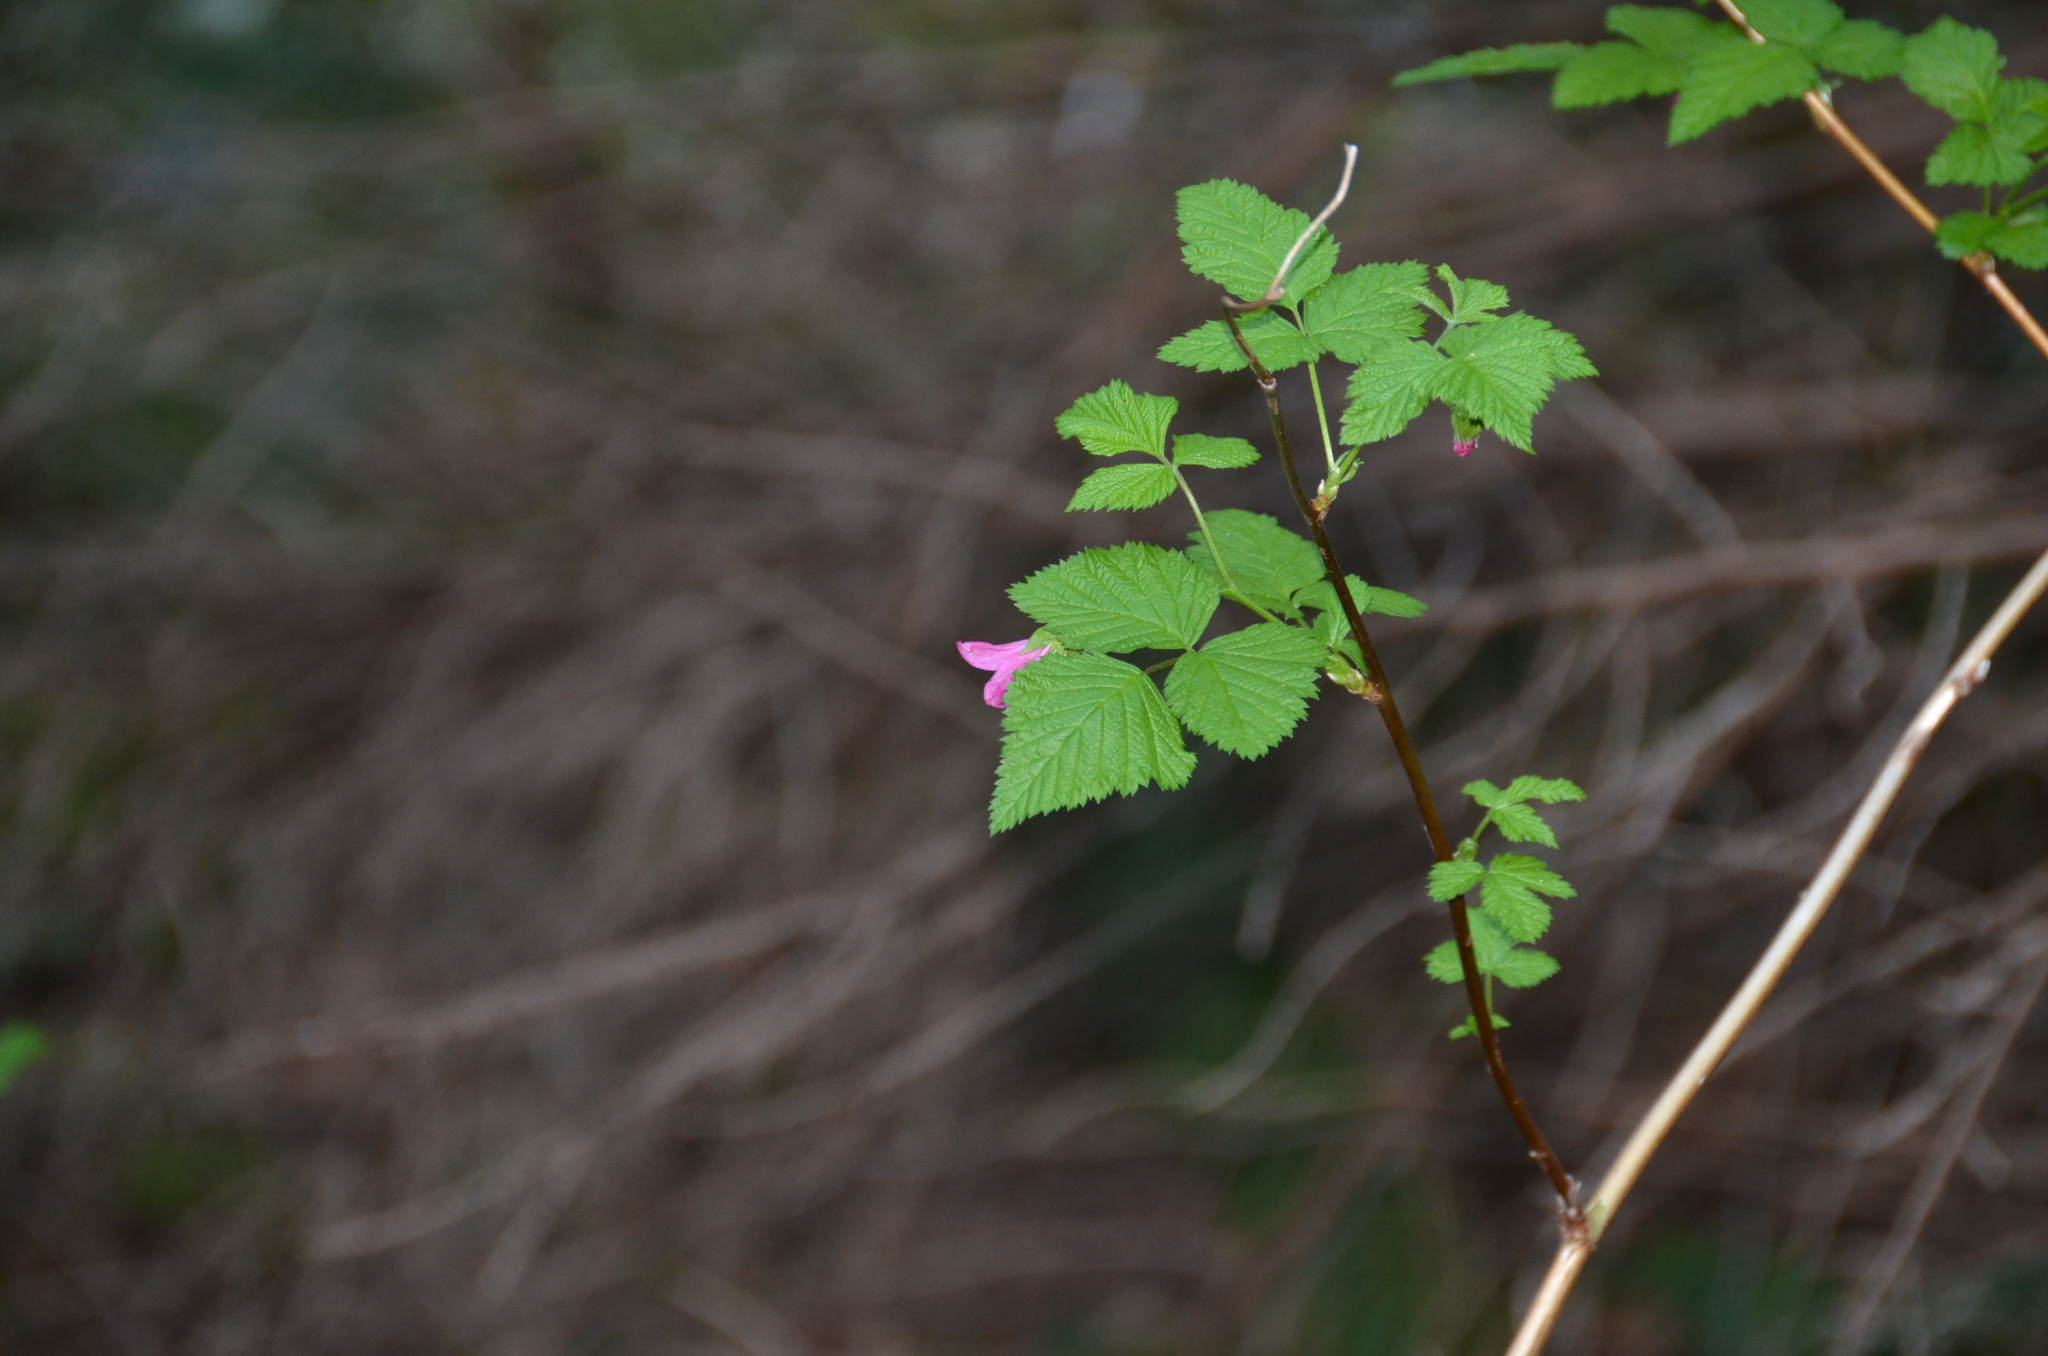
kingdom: Plantae
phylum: Tracheophyta
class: Magnoliopsida
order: Rosales
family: Rosaceae
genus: Rubus
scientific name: Rubus spectabilis
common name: Salmonberry
